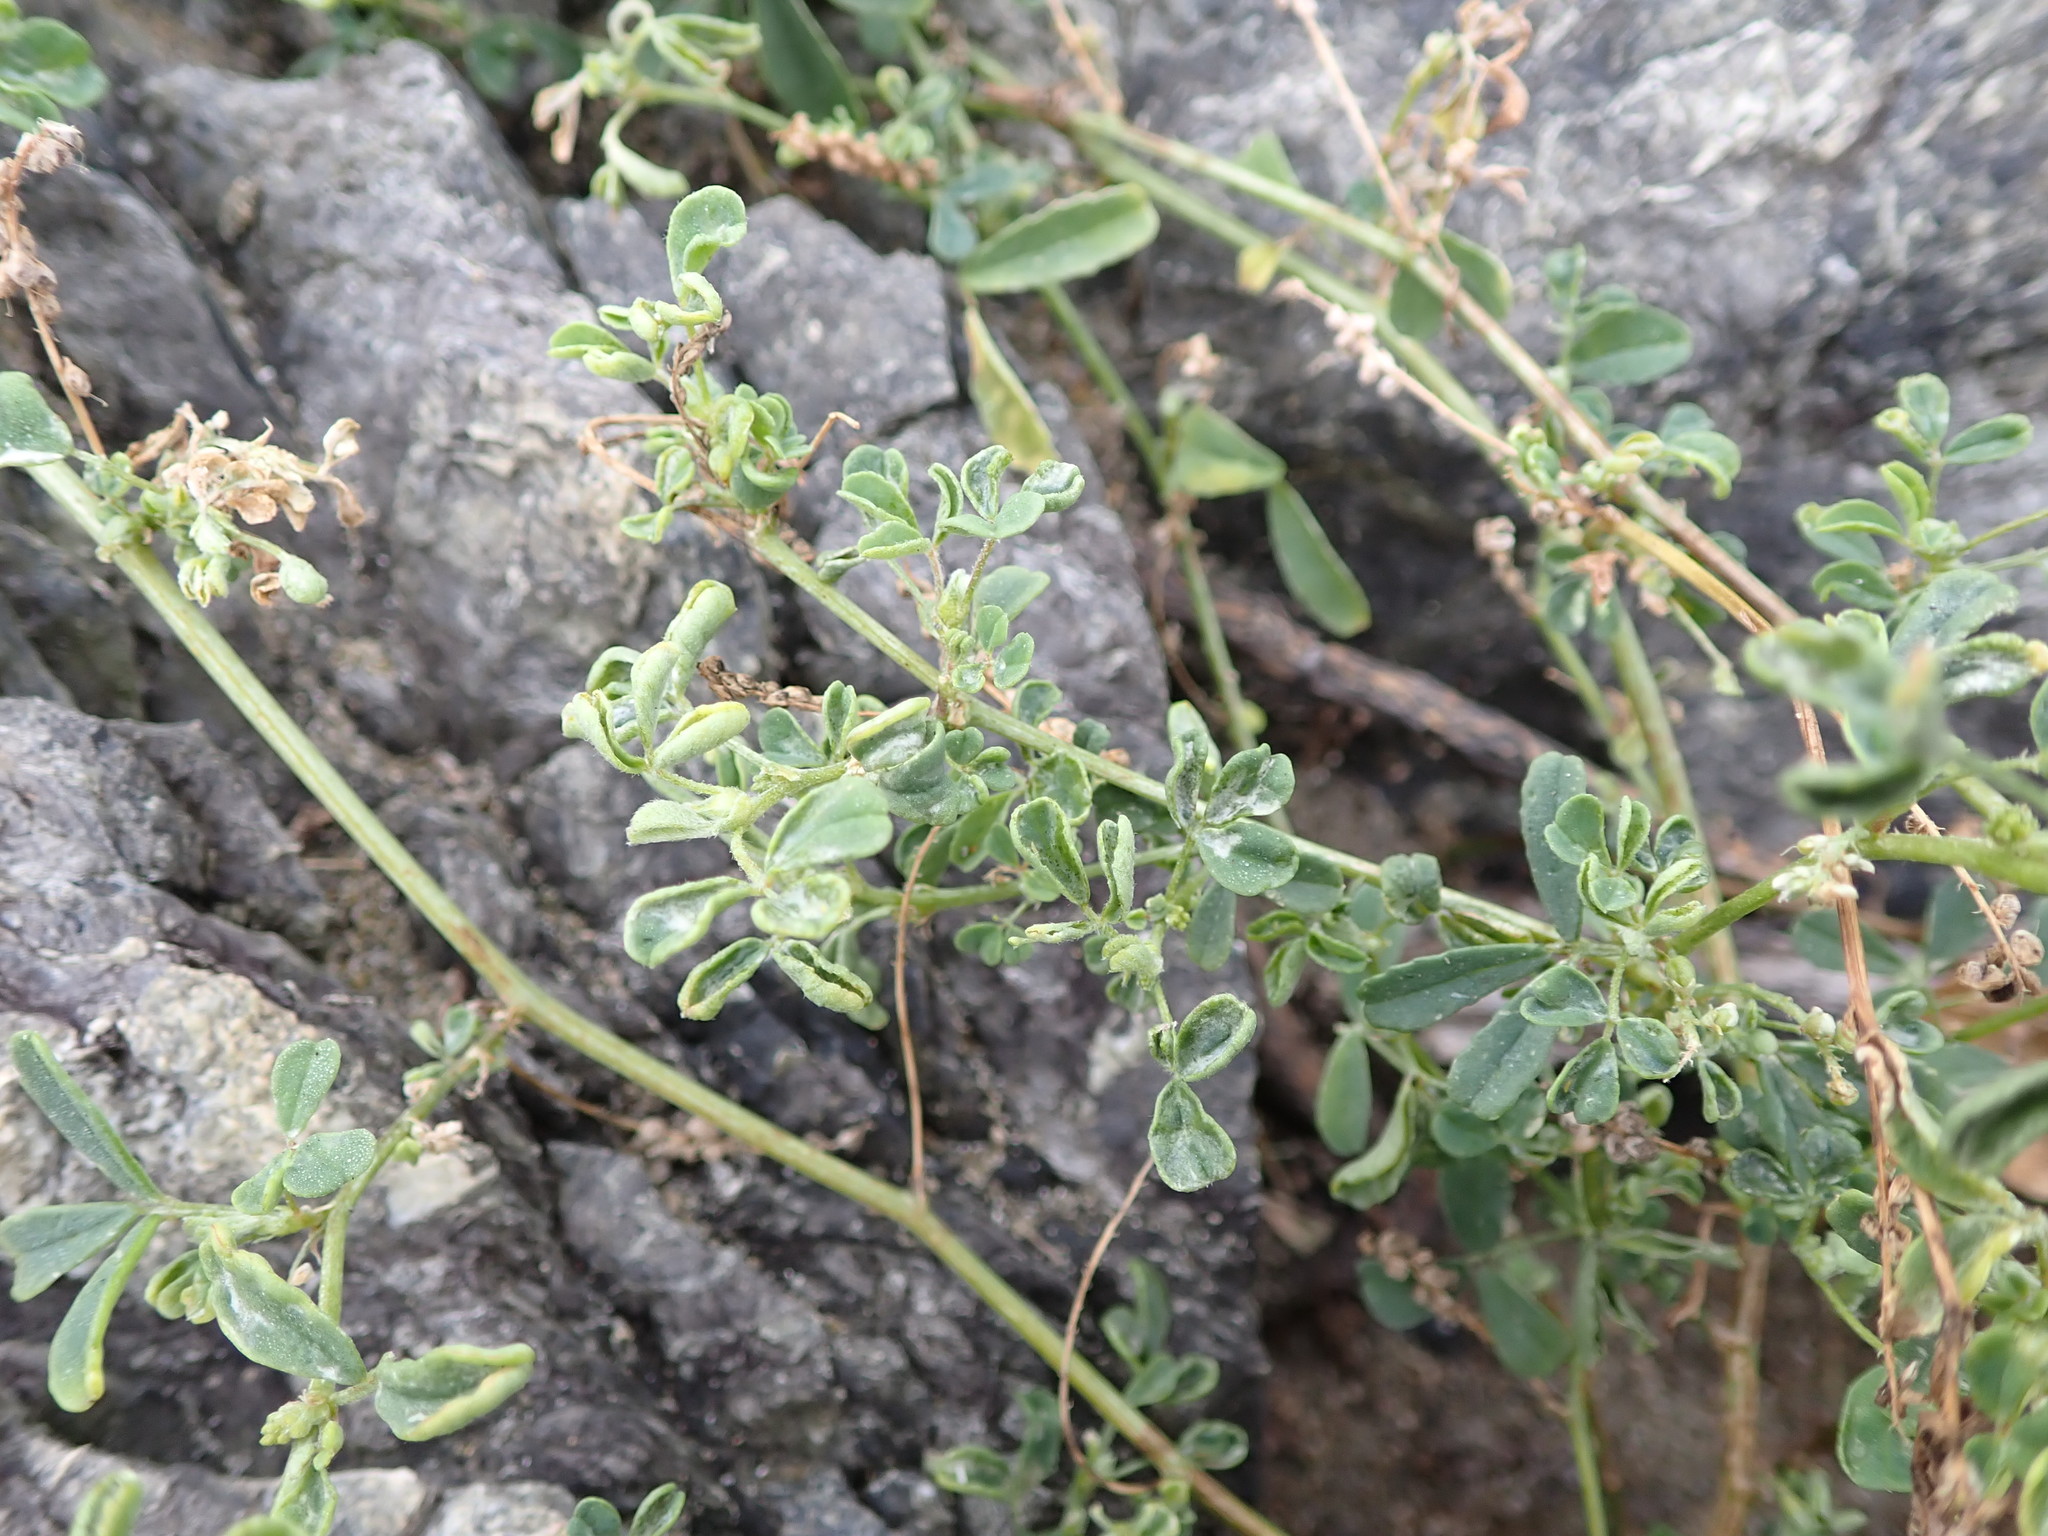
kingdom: Plantae
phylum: Tracheophyta
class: Magnoliopsida
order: Fabales
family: Fabaceae
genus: Melilotus
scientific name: Melilotus indicus
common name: Small melilot
